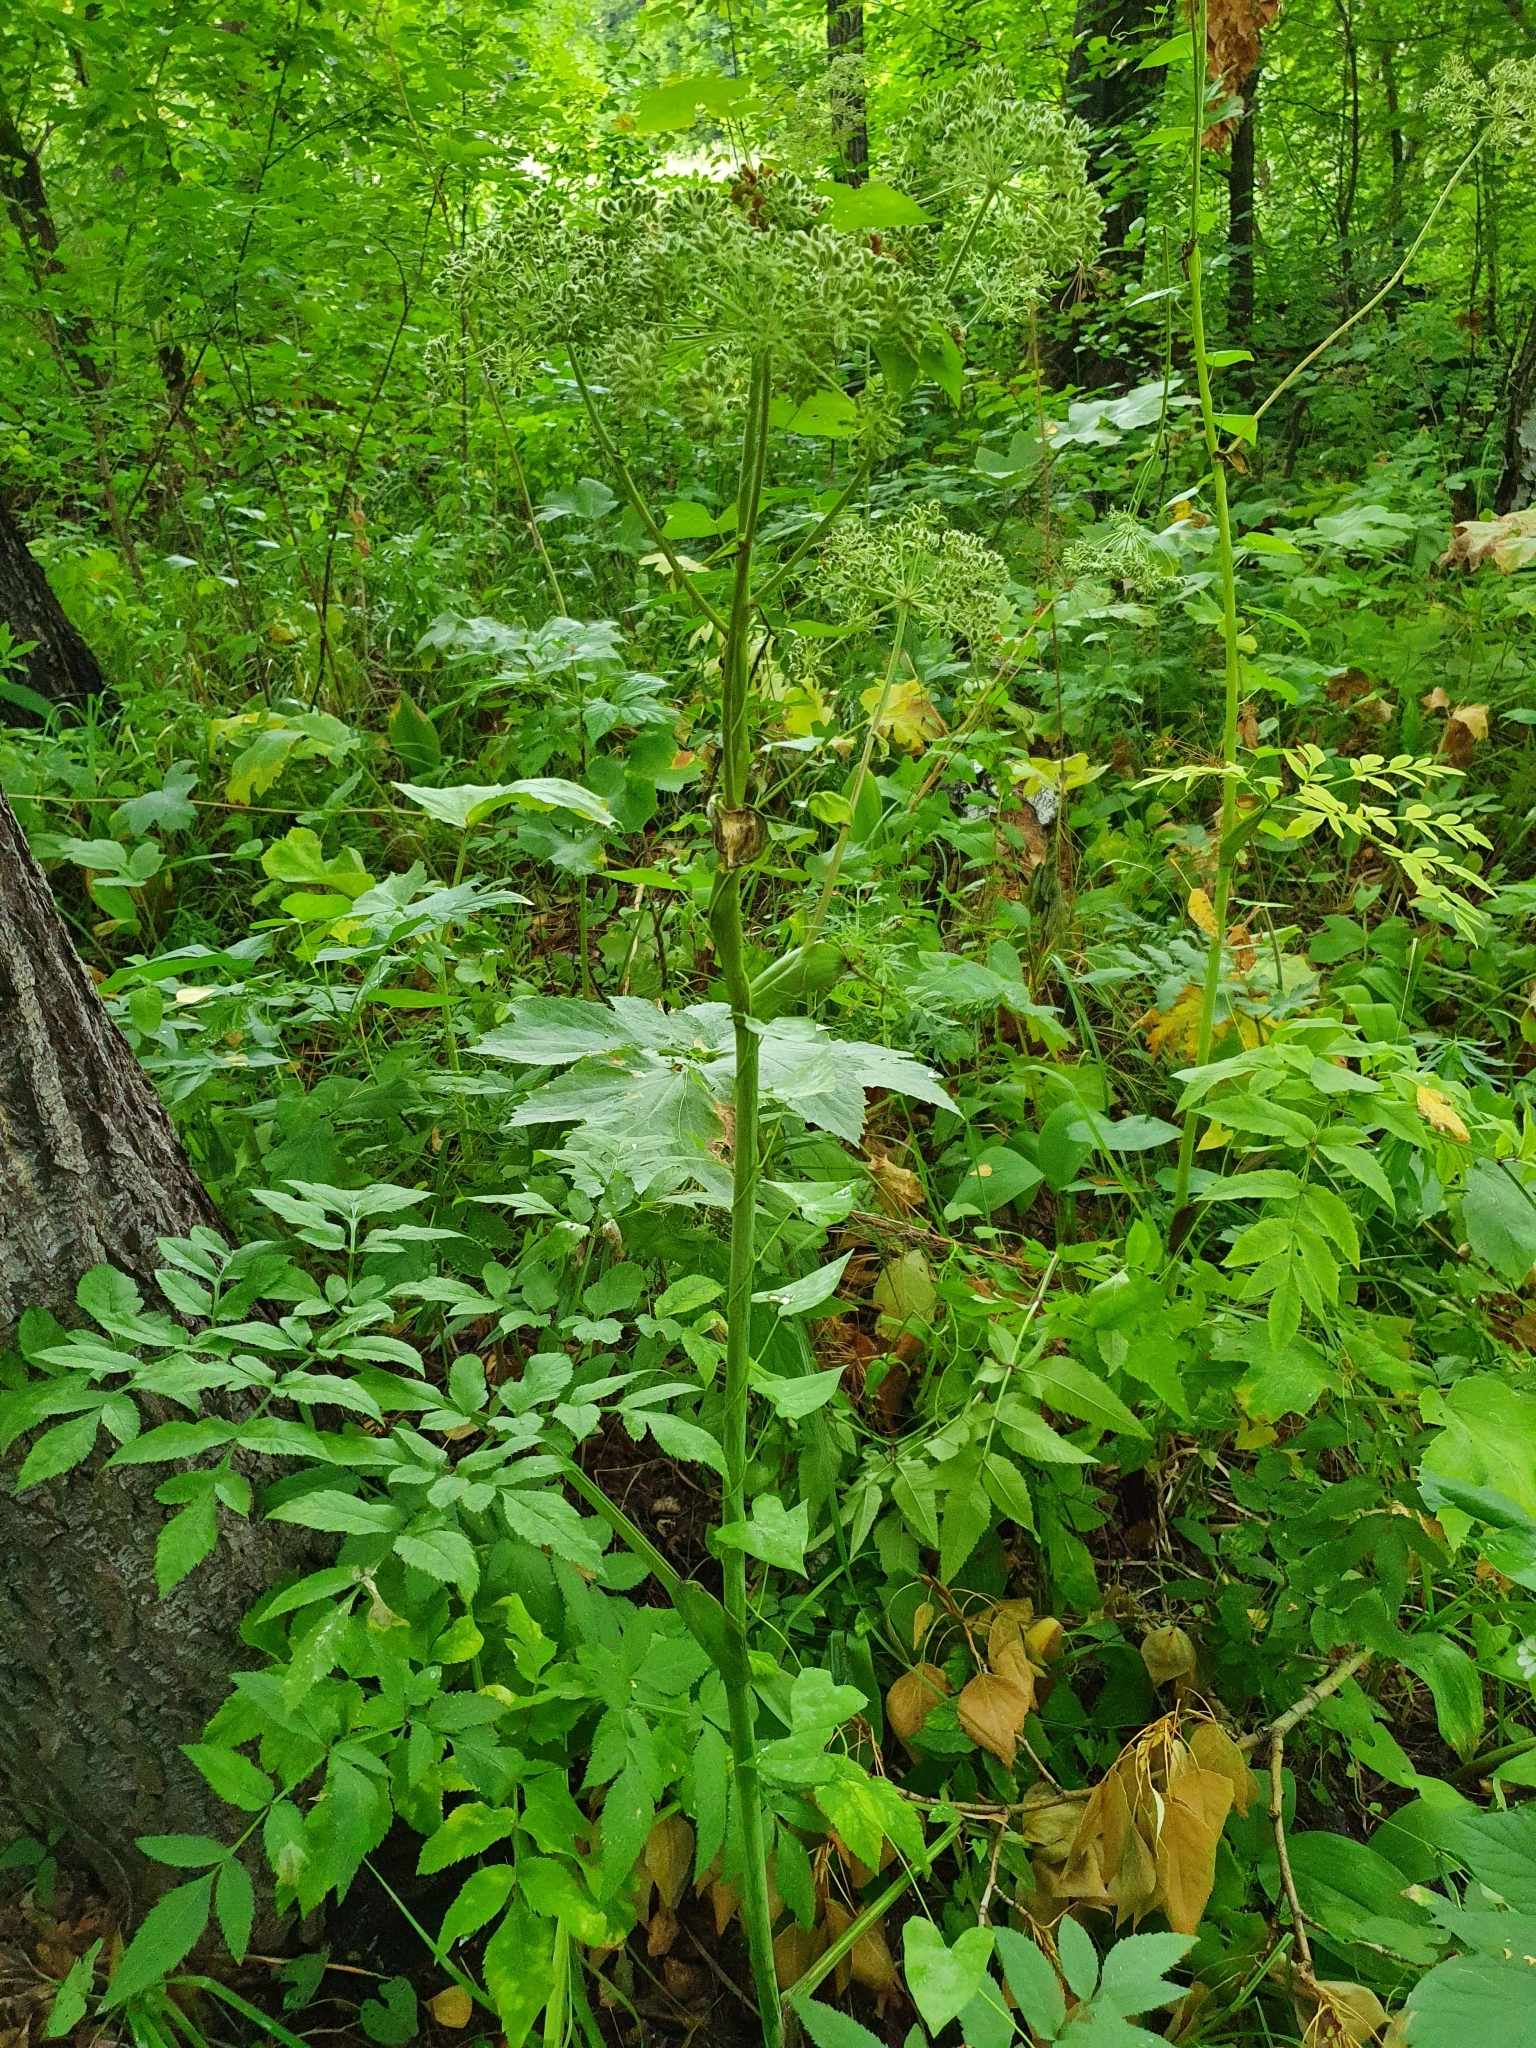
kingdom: Plantae
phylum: Tracheophyta
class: Magnoliopsida
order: Apiales
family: Apiaceae
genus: Angelica
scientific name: Angelica sylvestris
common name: Wild angelica
